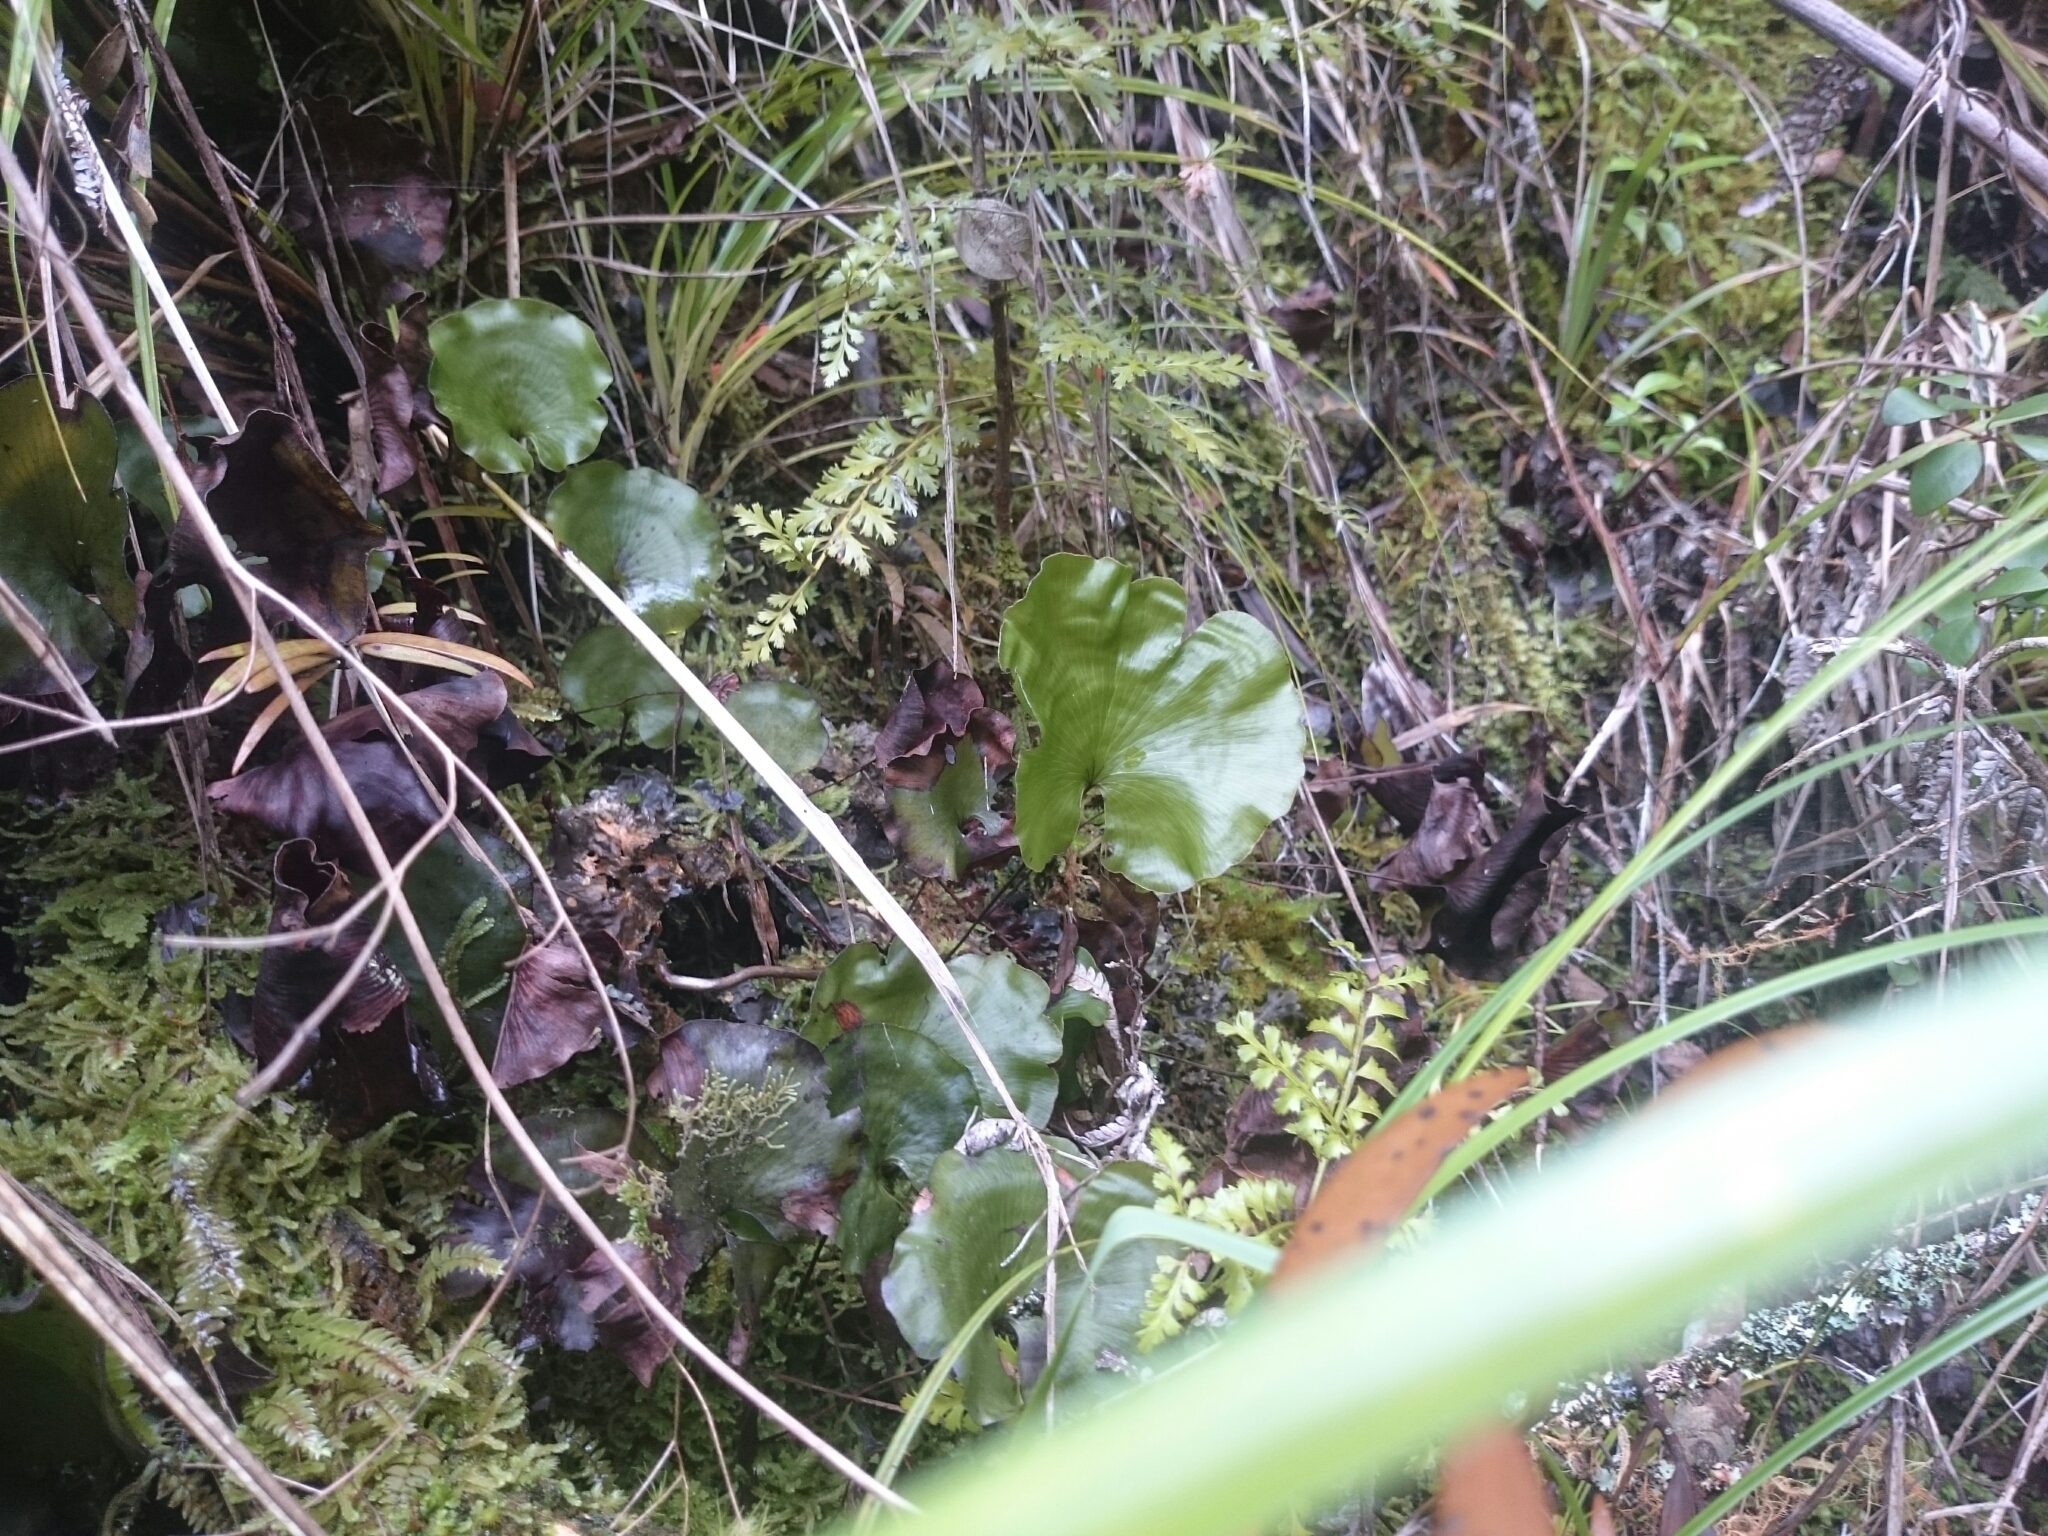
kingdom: Plantae
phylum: Tracheophyta
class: Polypodiopsida
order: Hymenophyllales
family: Hymenophyllaceae
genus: Hymenophyllum
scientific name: Hymenophyllum nephrophyllum
